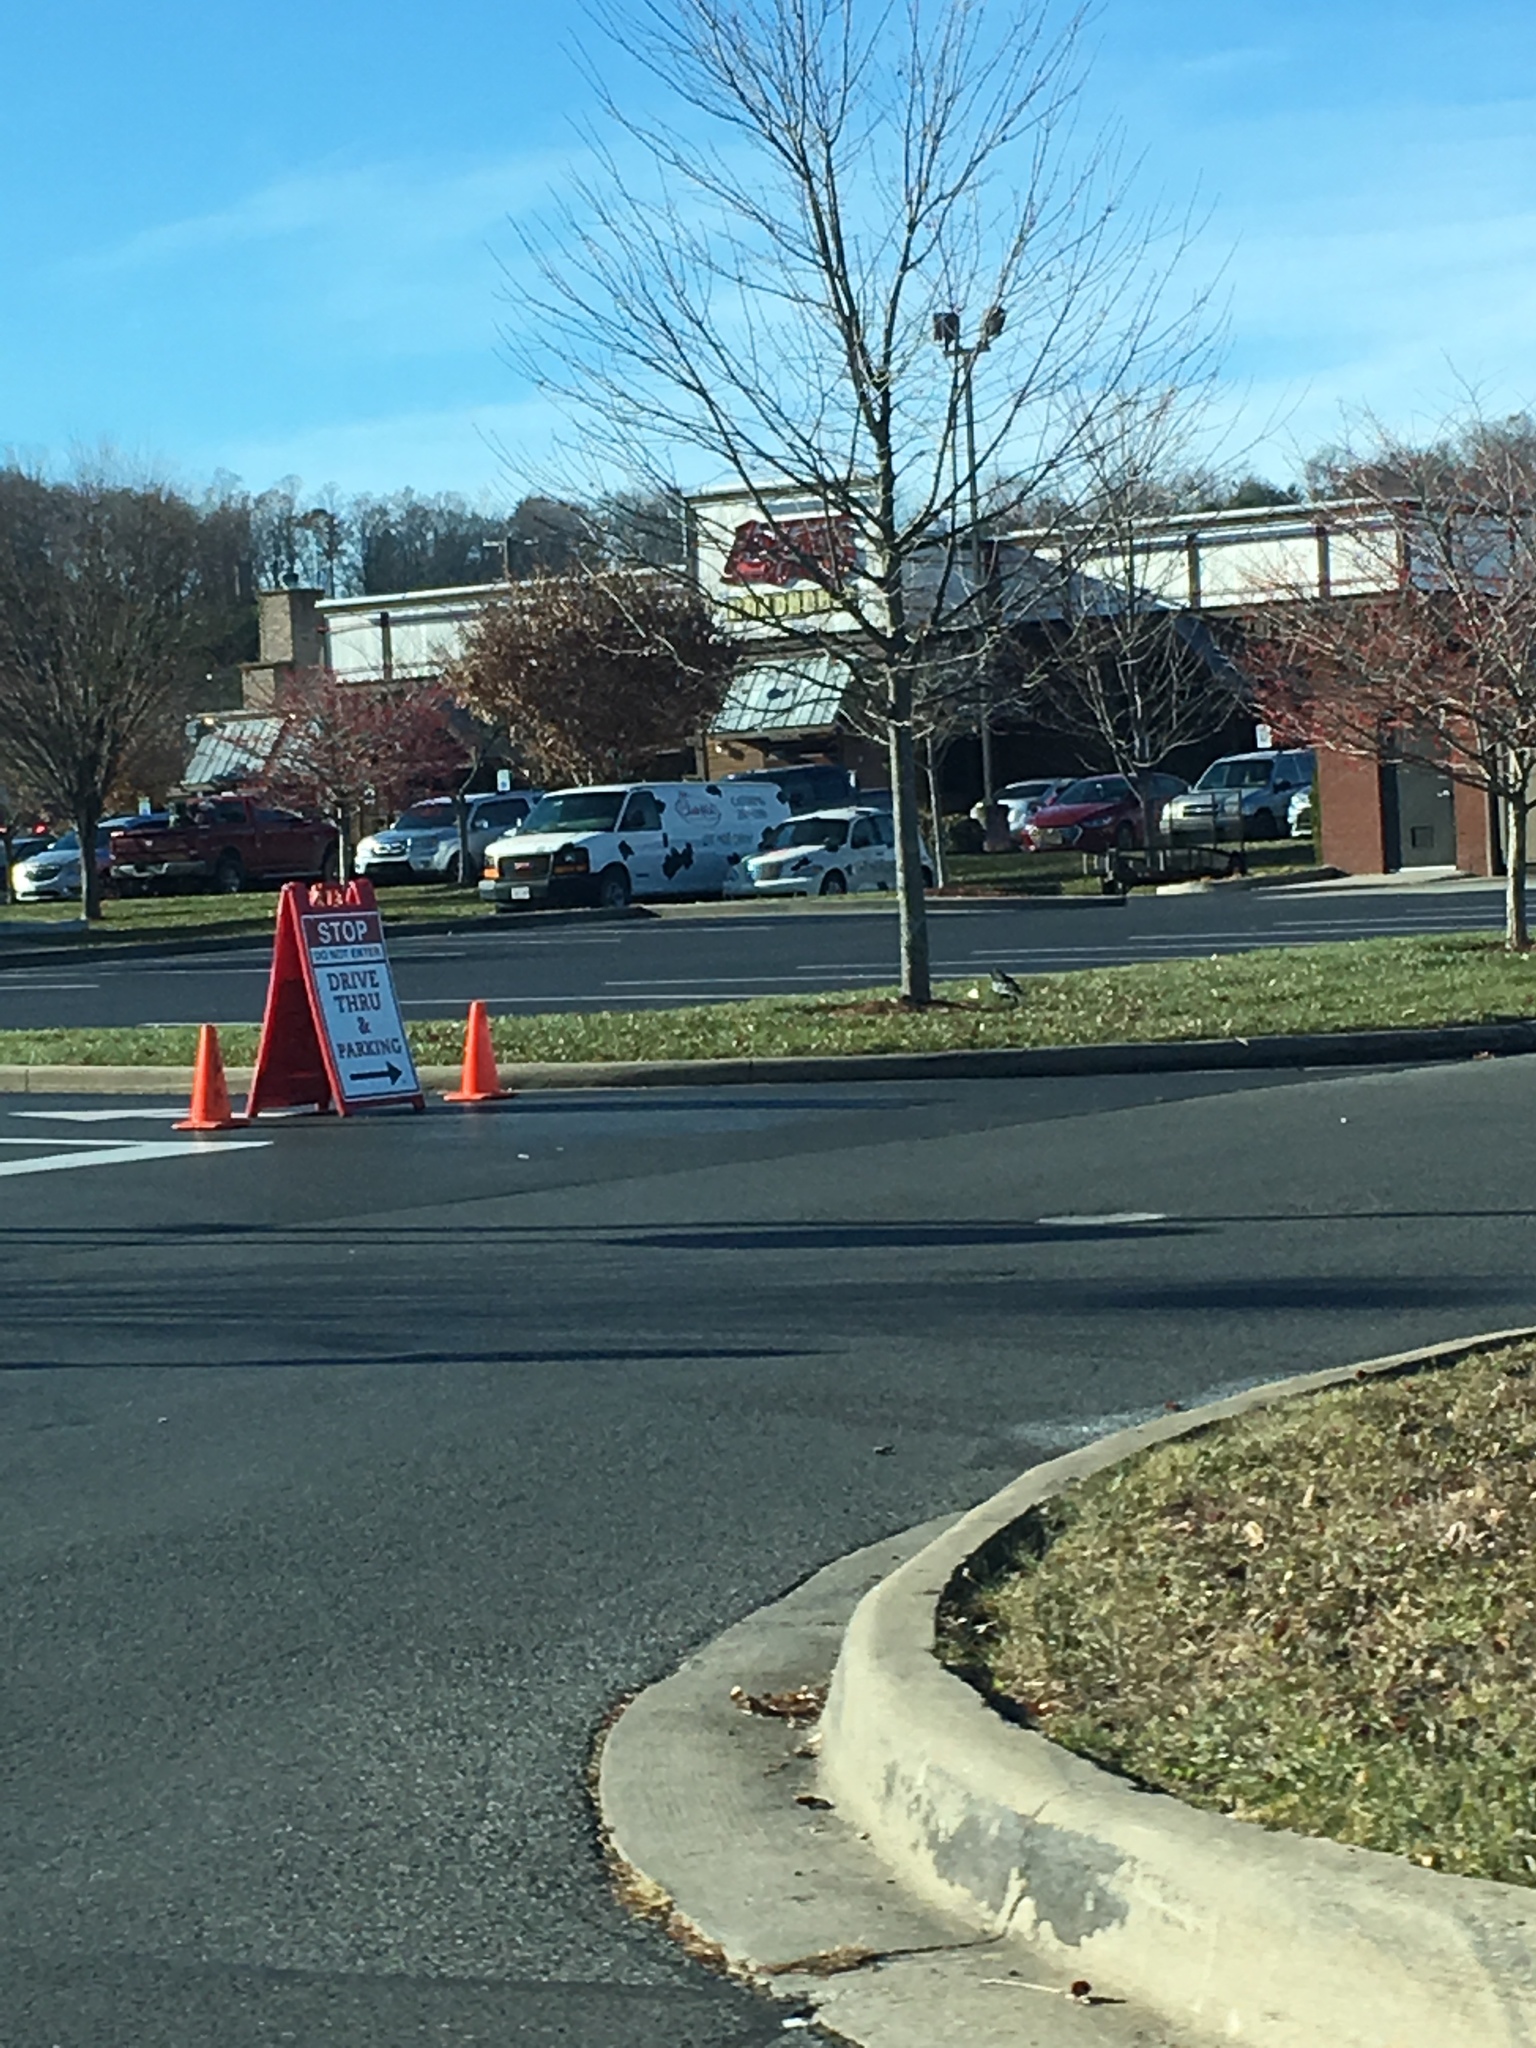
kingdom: Animalia
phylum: Chordata
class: Aves
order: Passeriformes
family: Corvidae
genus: Corvus
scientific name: Corvus brachyrhynchos
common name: American crow
